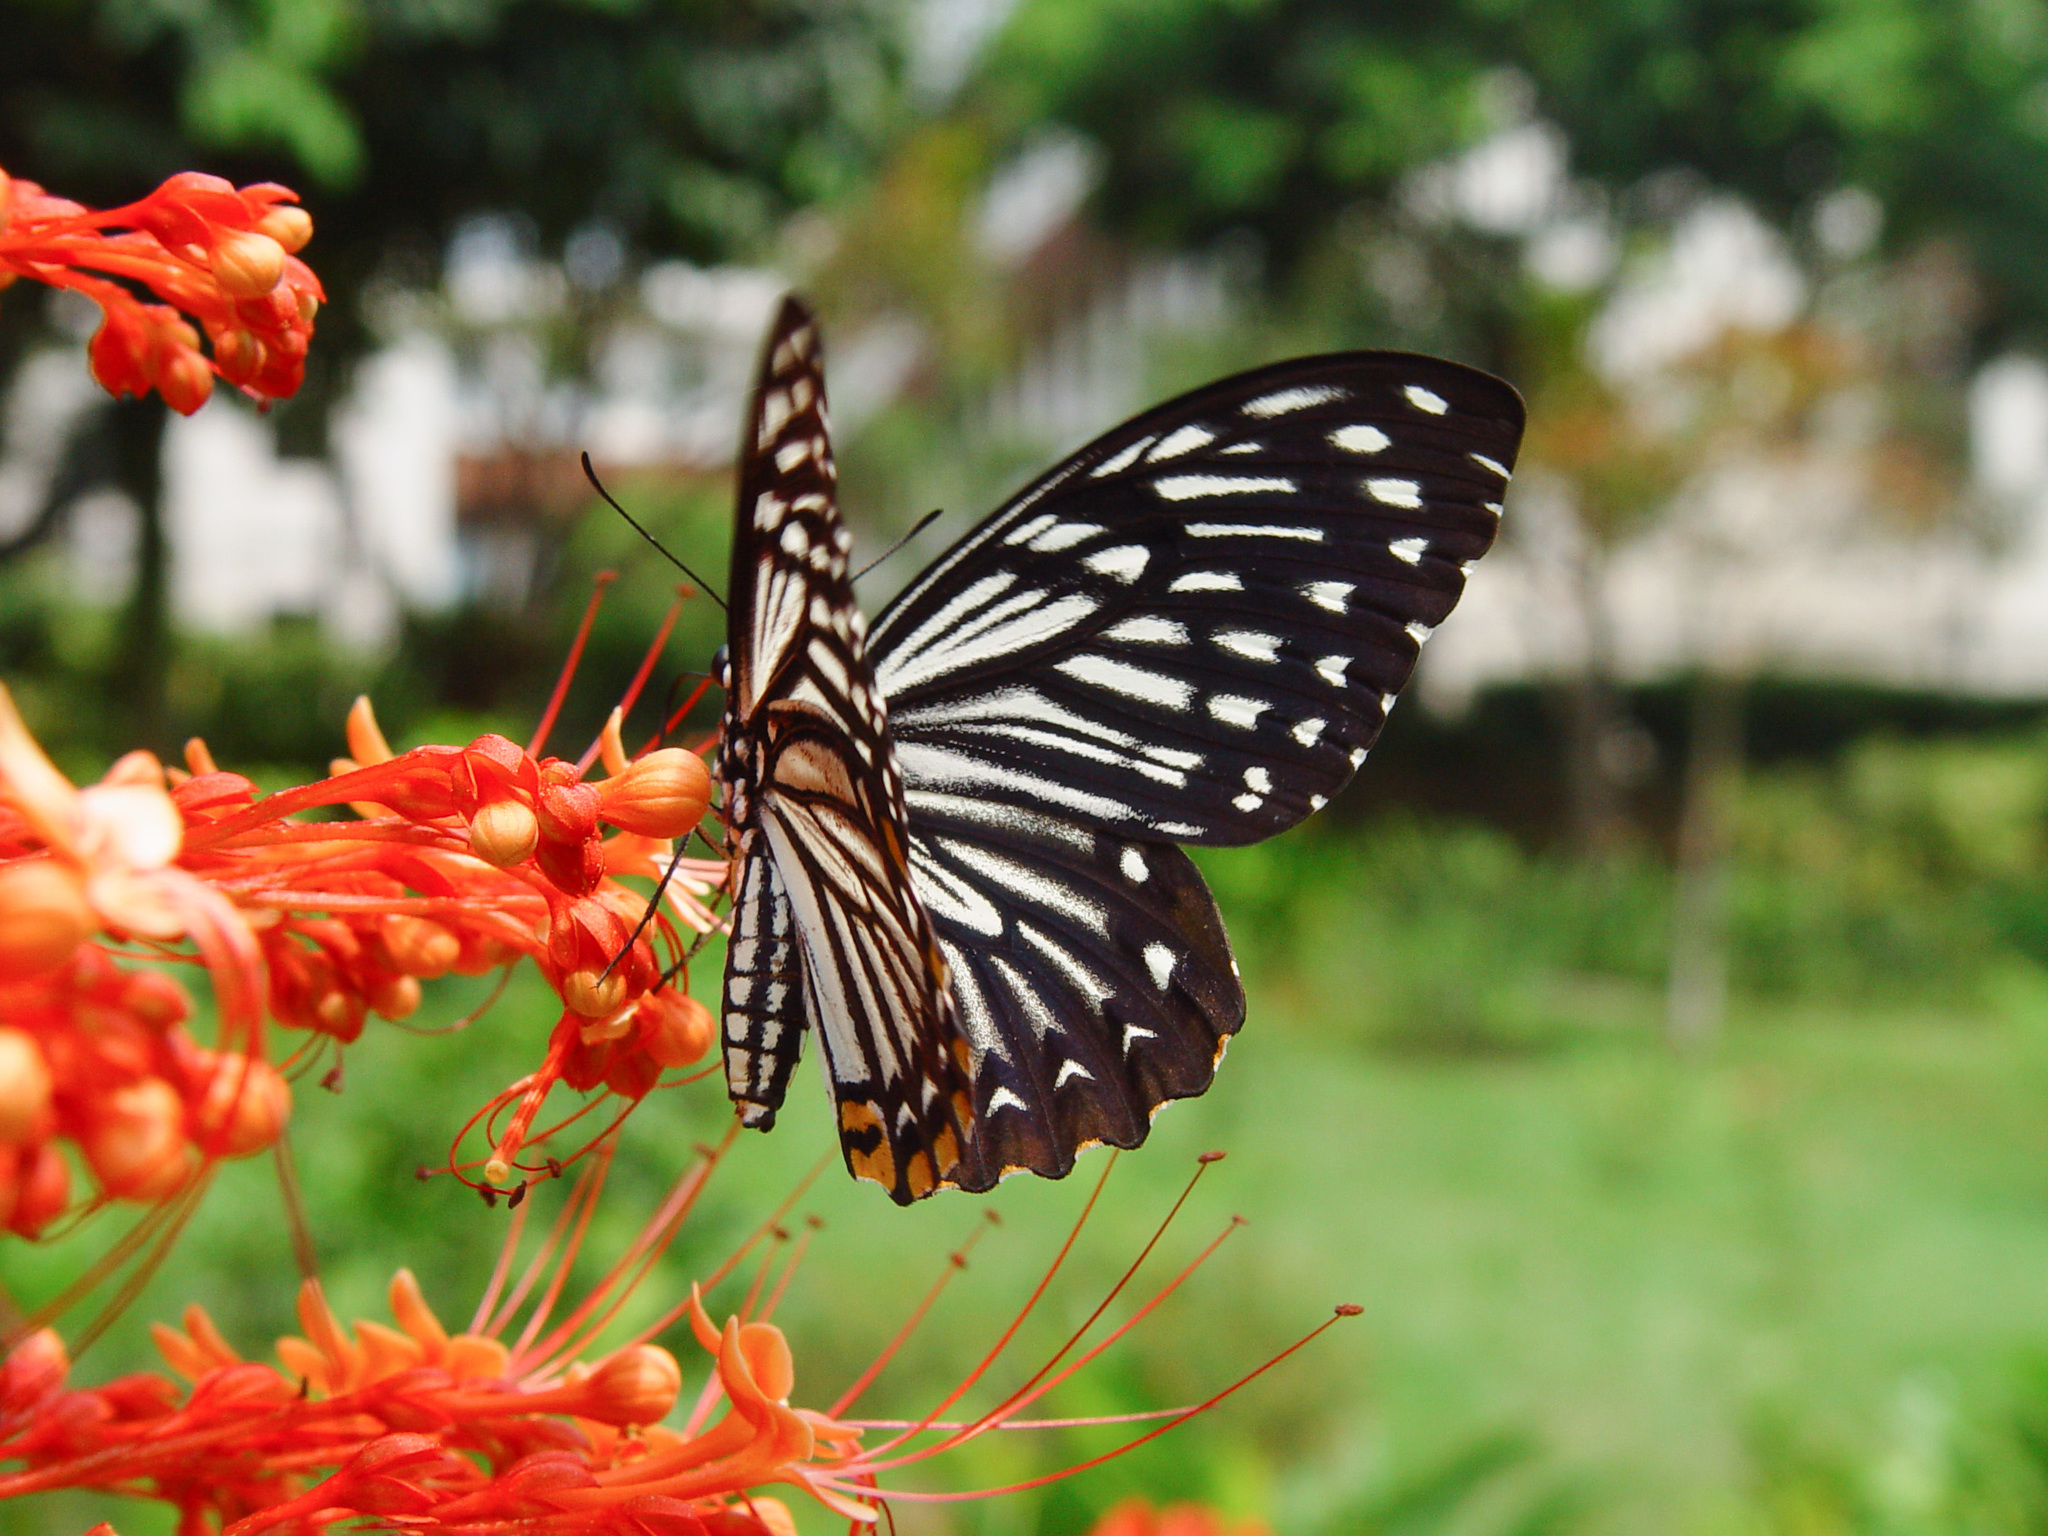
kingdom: Animalia
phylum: Arthropoda
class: Insecta
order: Lepidoptera
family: Papilionidae
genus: Chilasa
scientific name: Chilasa clytia
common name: Common mime
